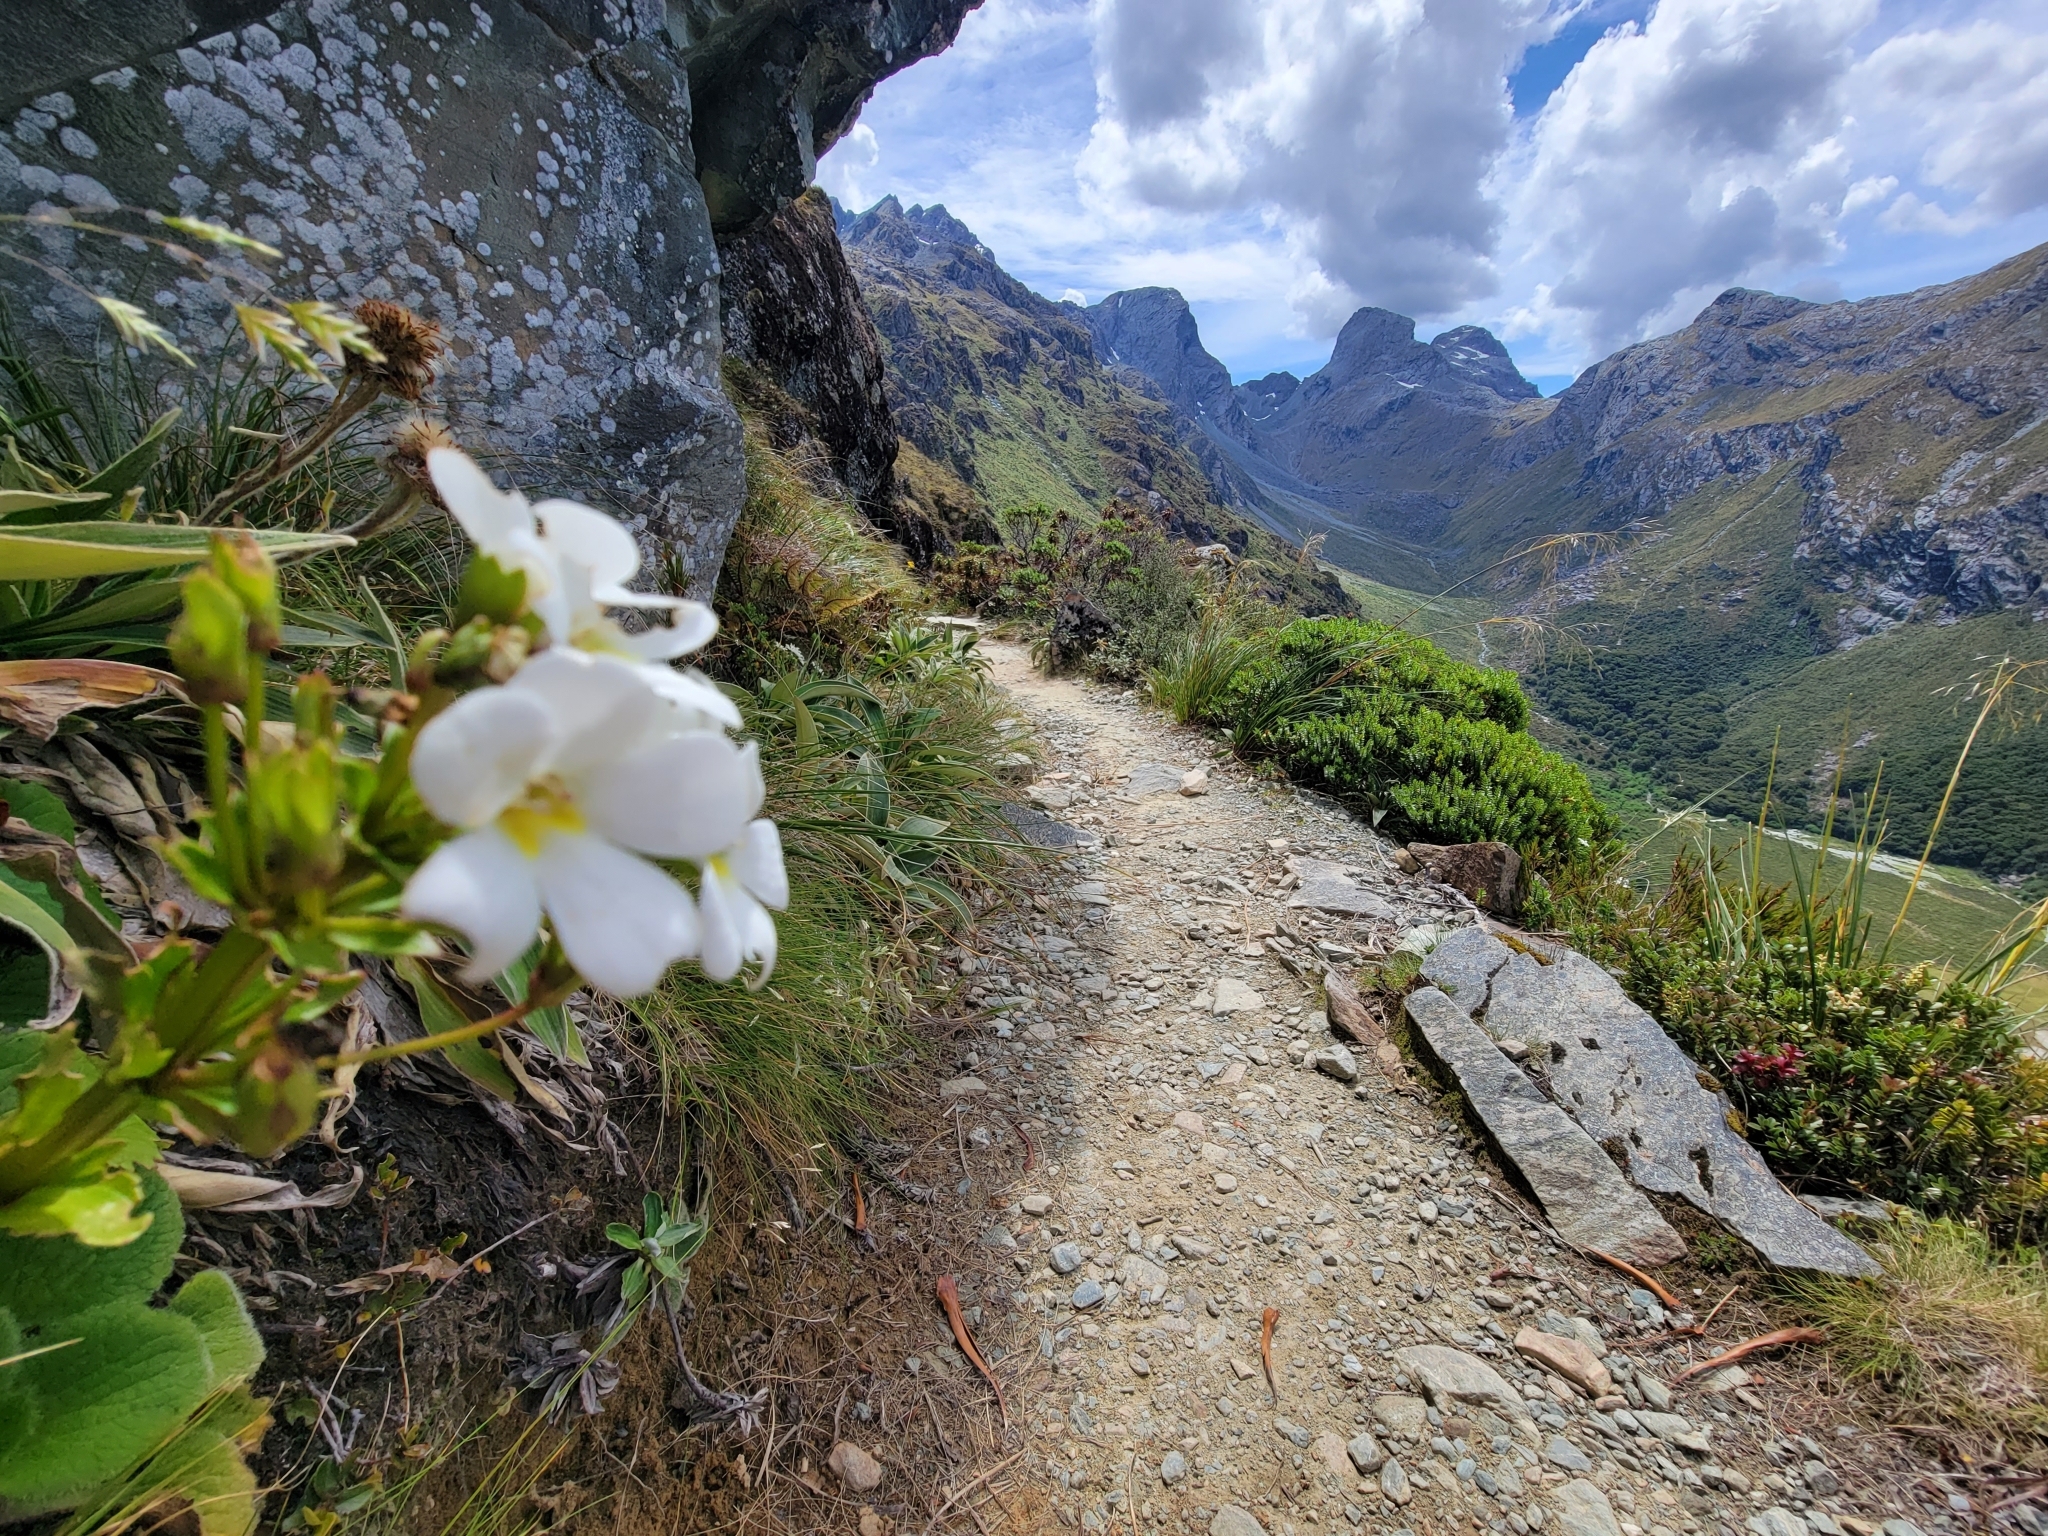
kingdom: Plantae
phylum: Tracheophyta
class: Magnoliopsida
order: Lamiales
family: Plantaginaceae
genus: Ourisia
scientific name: Ourisia macrophylla
